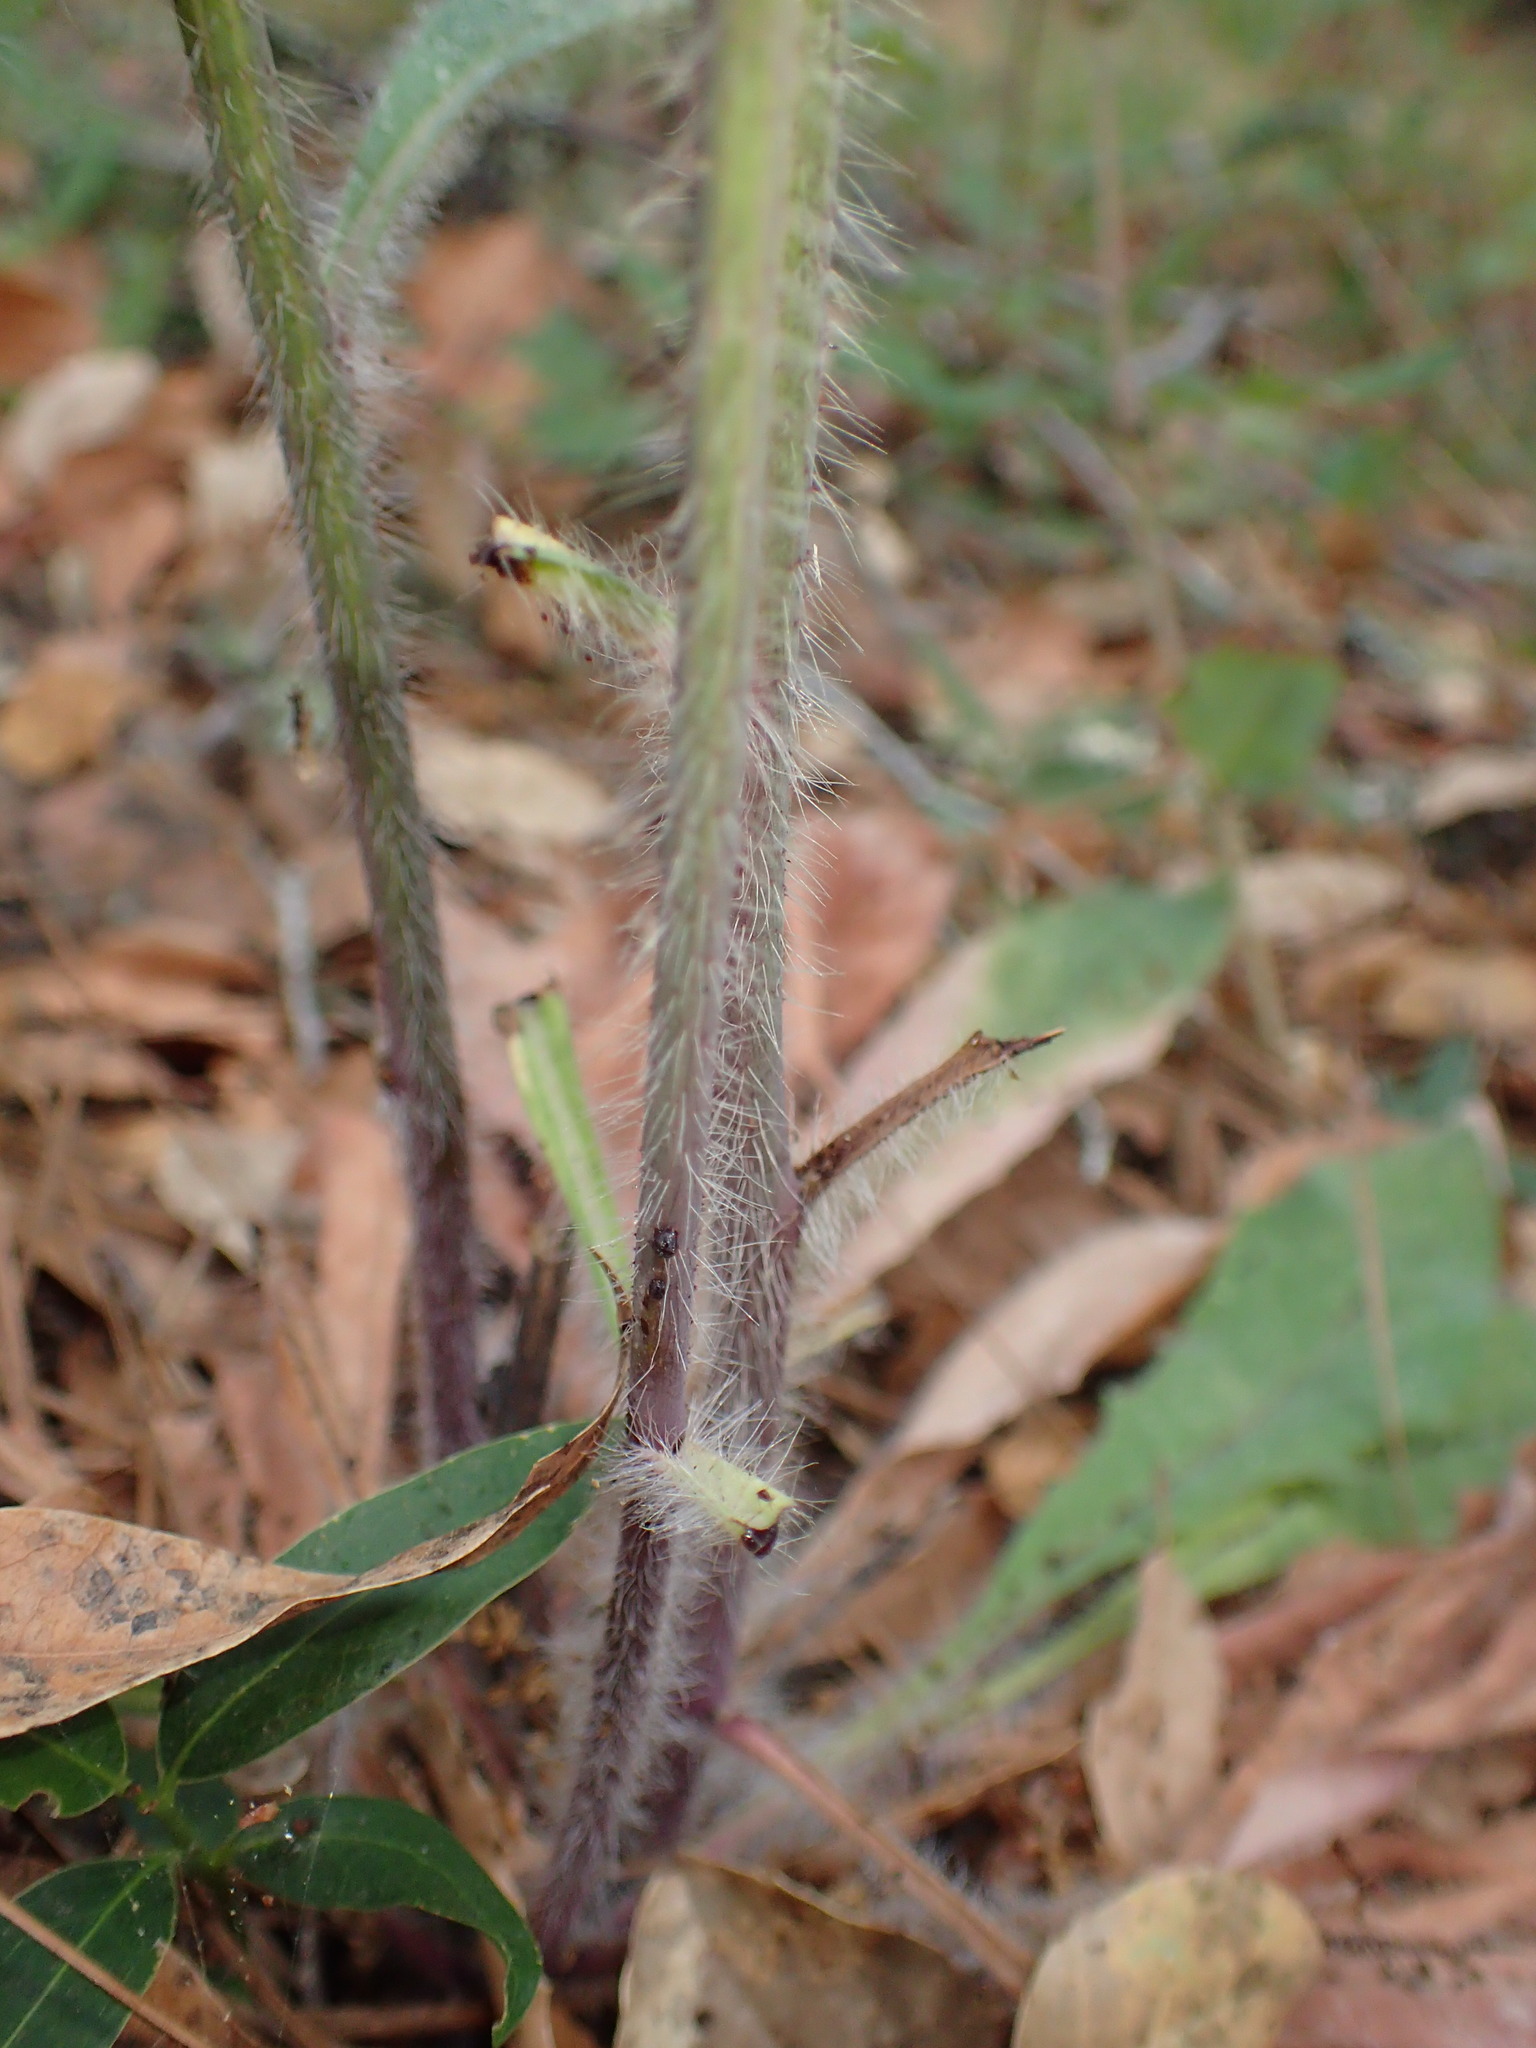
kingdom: Plantae
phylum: Tracheophyta
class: Magnoliopsida
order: Asterales
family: Asteraceae
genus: Hieracium
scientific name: Hieracium albiflorum
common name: White hawkweed
